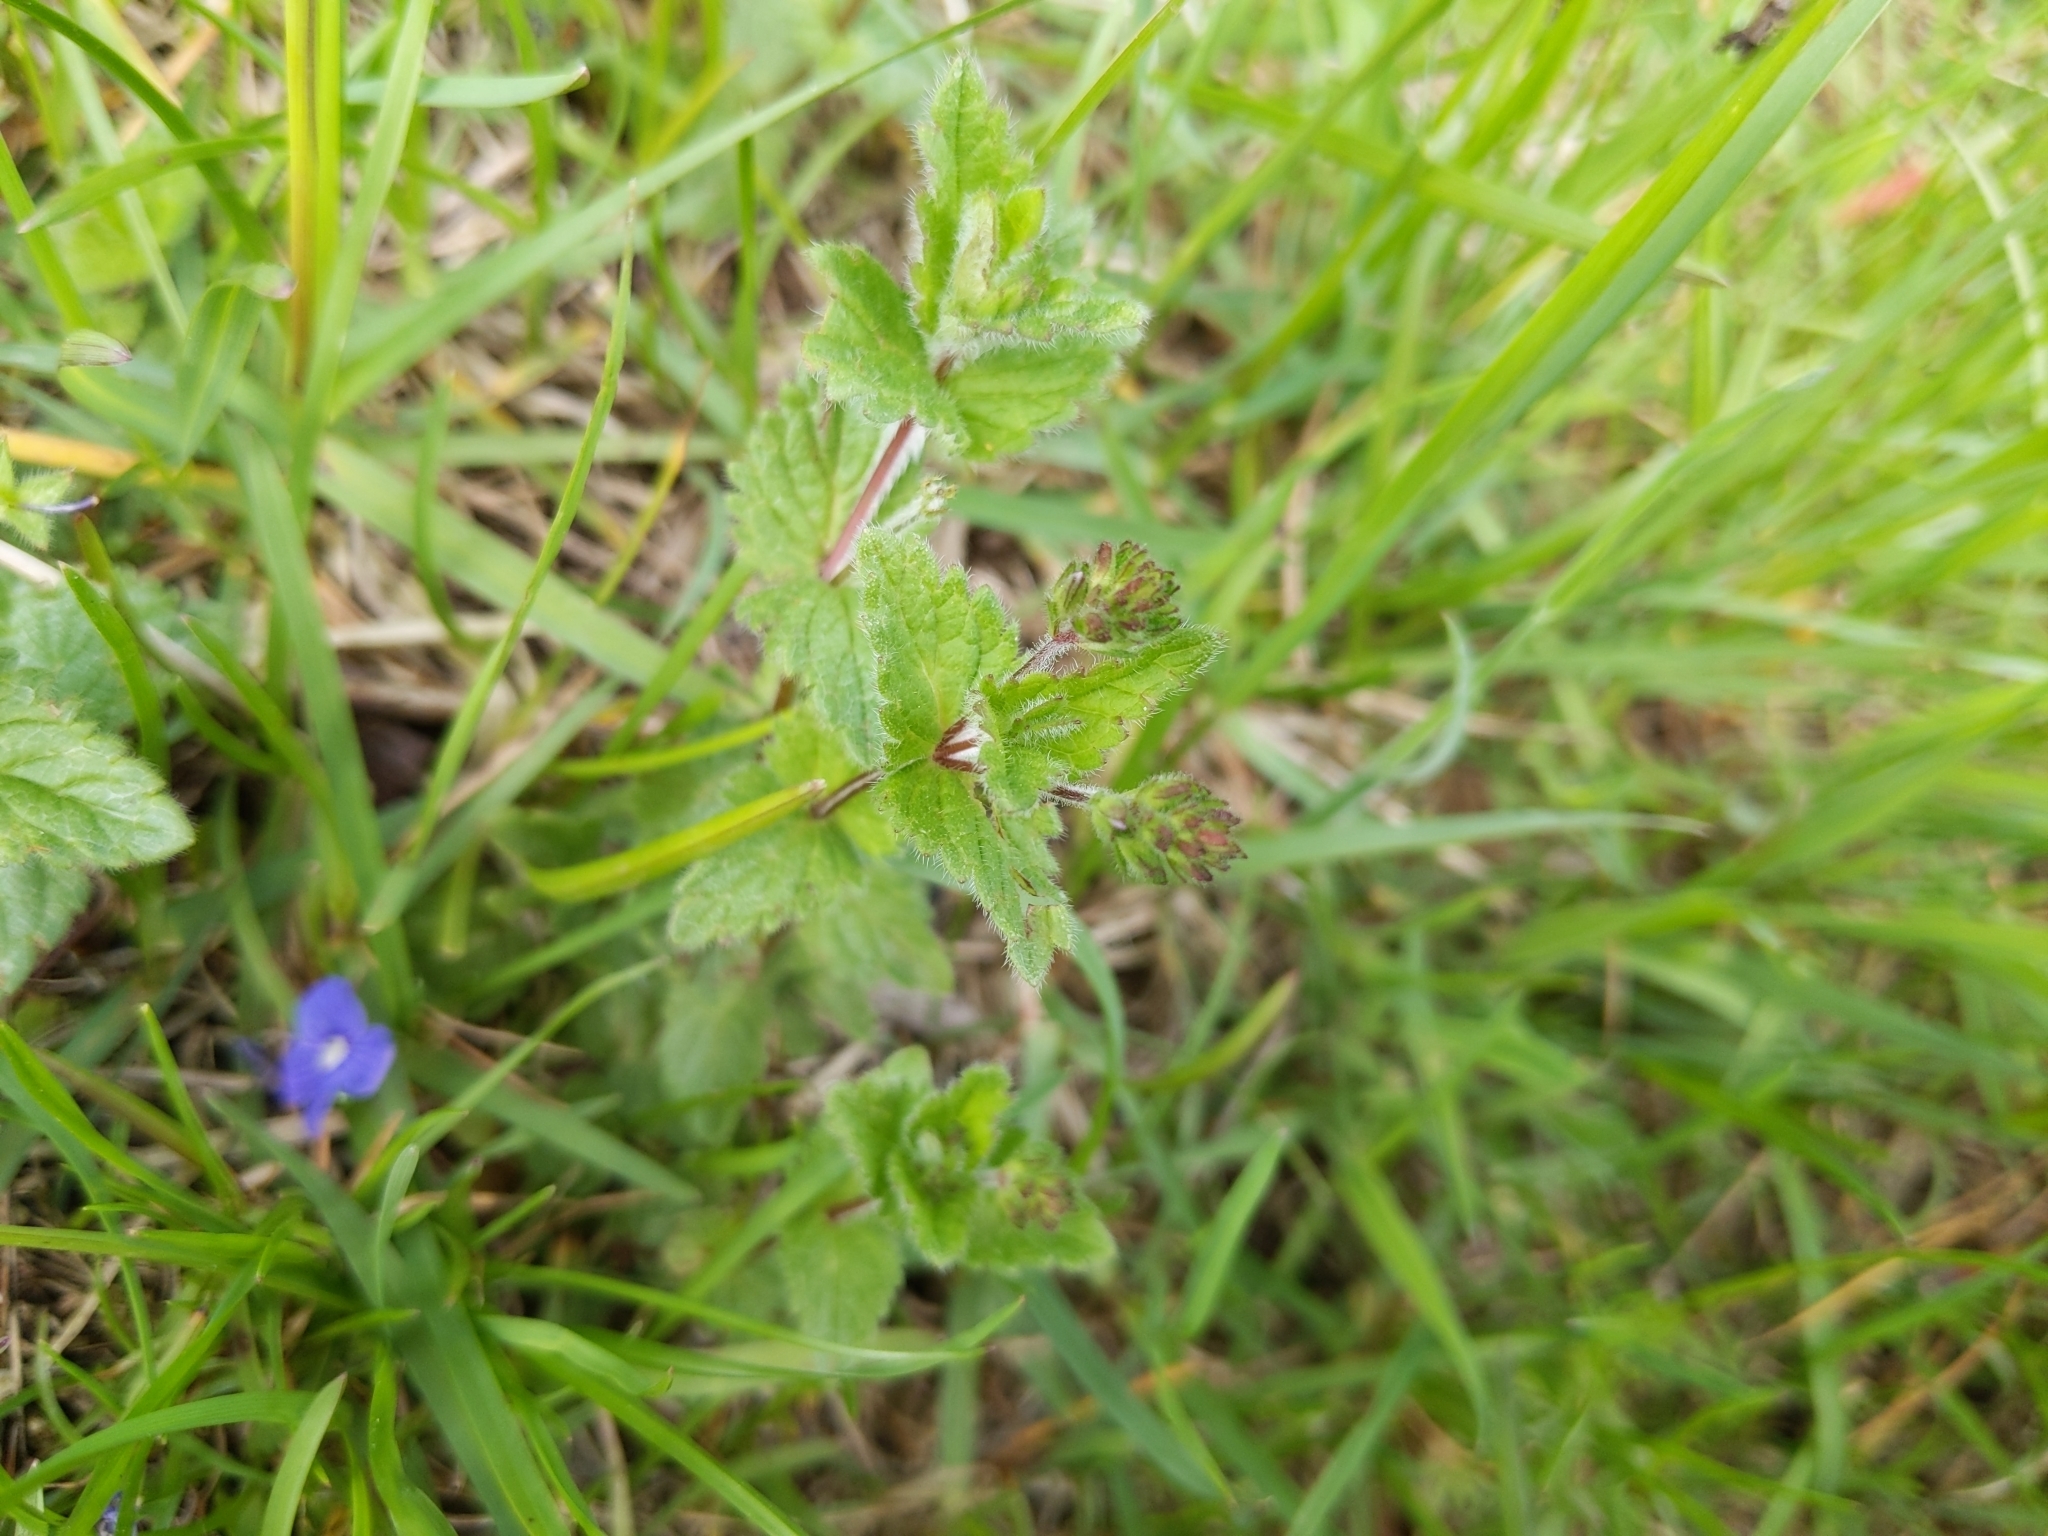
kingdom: Plantae
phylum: Tracheophyta
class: Magnoliopsida
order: Lamiales
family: Plantaginaceae
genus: Veronica
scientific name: Veronica chamaedrys
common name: Germander speedwell
